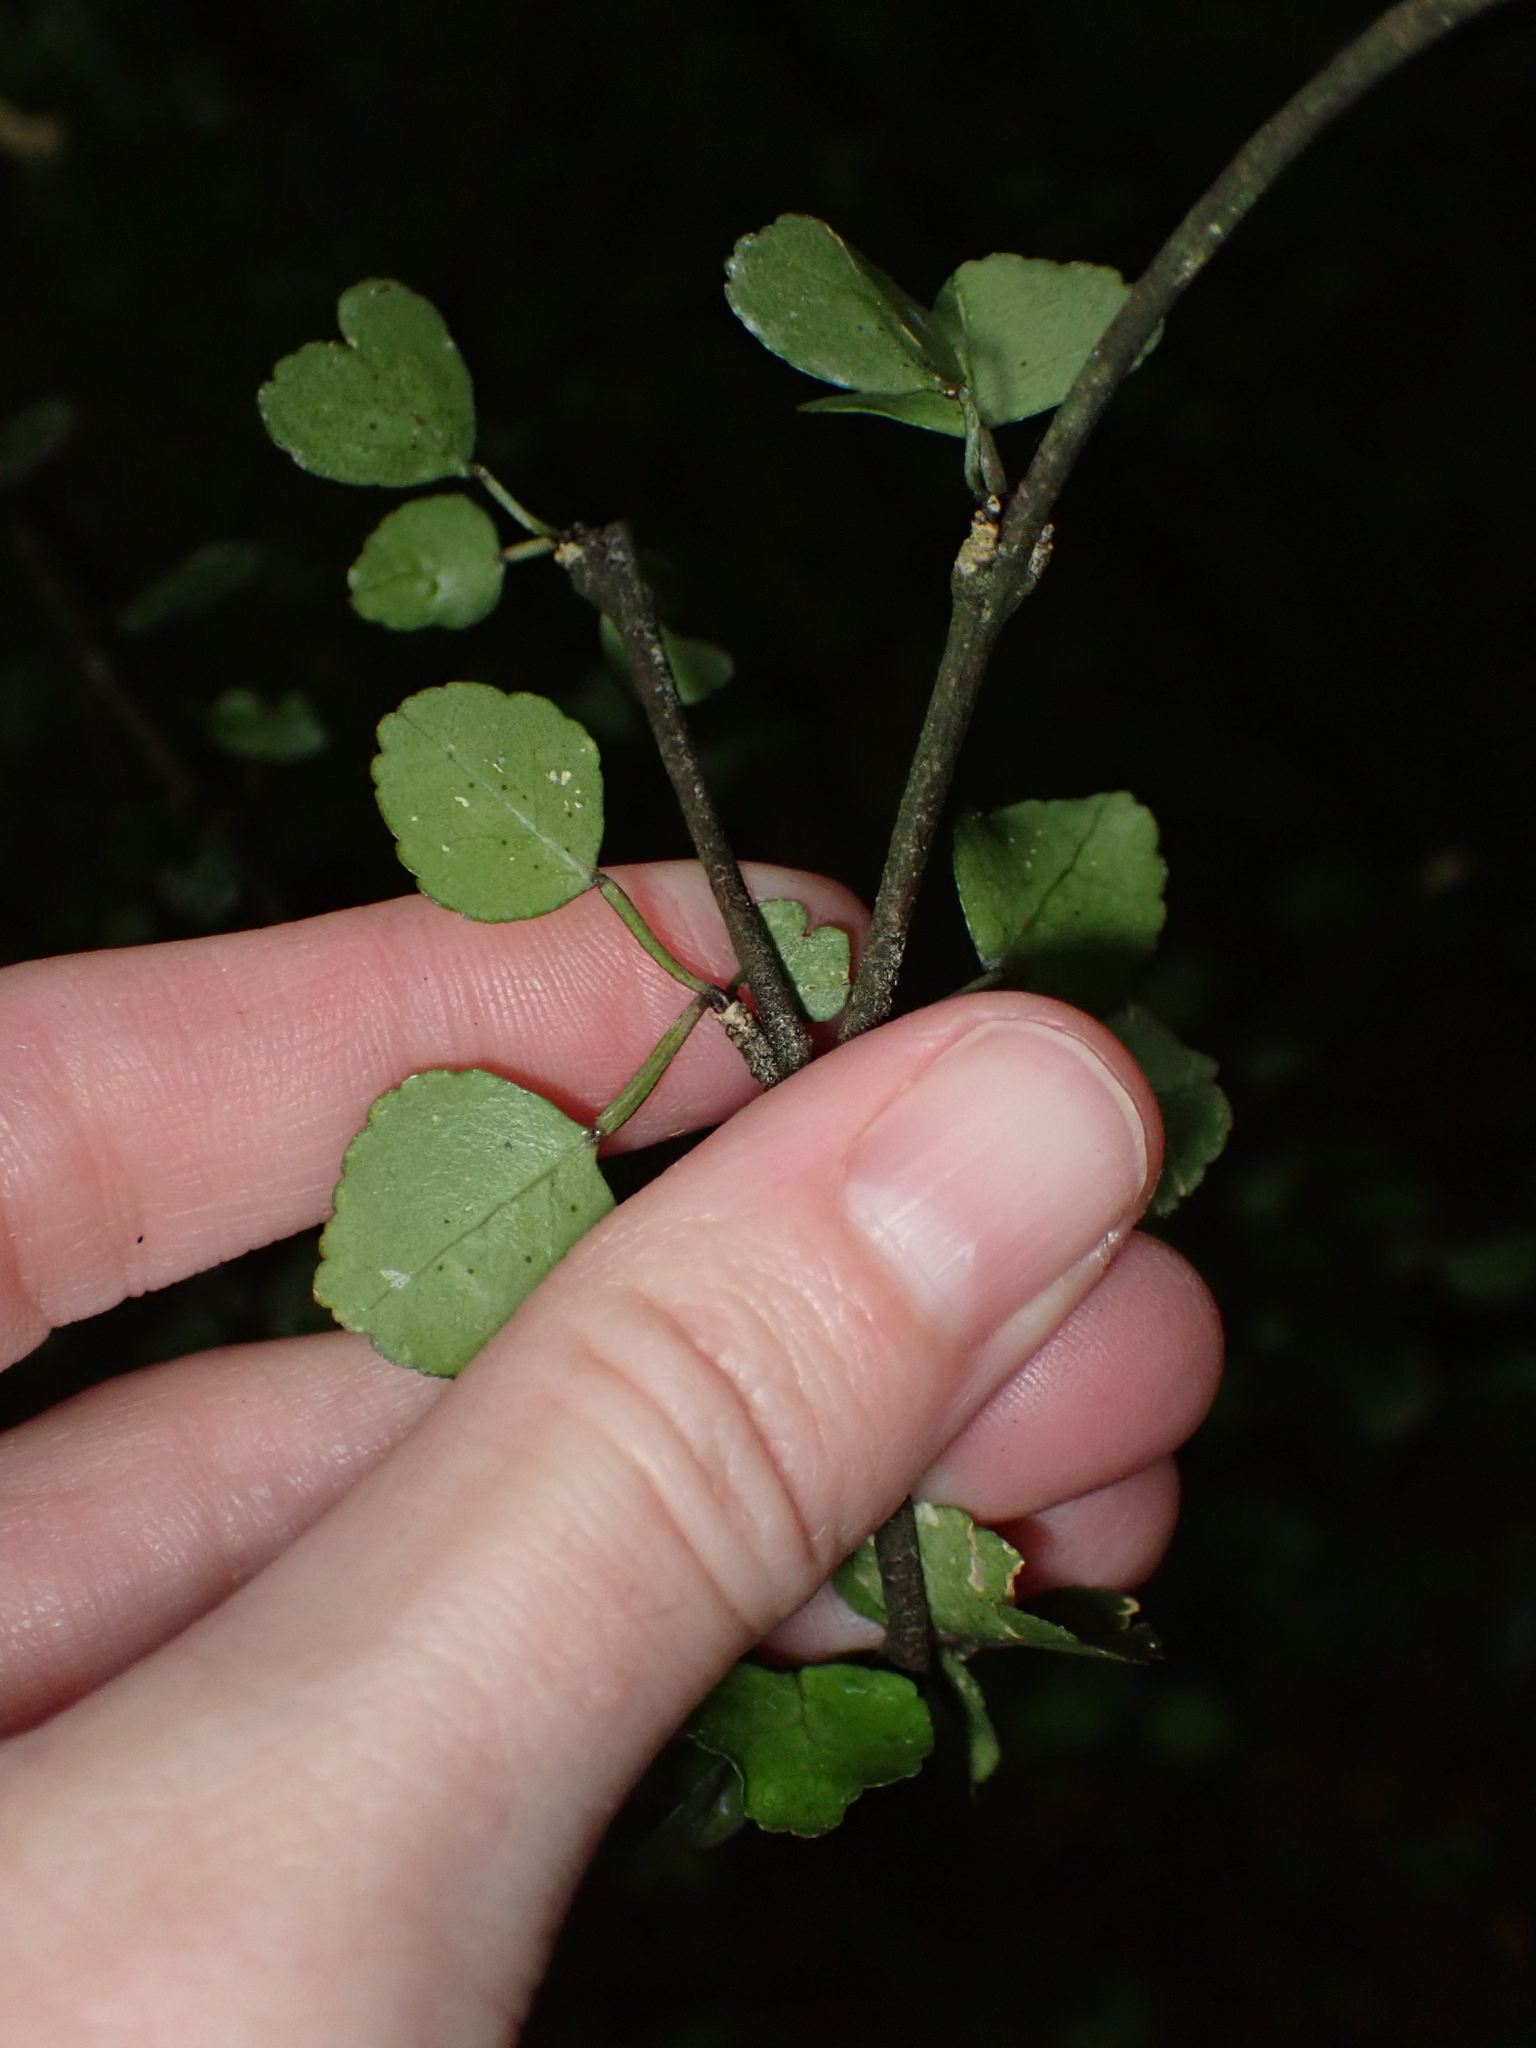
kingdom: Plantae
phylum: Tracheophyta
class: Magnoliopsida
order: Sapindales
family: Rutaceae
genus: Melicope
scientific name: Melicope simplex
